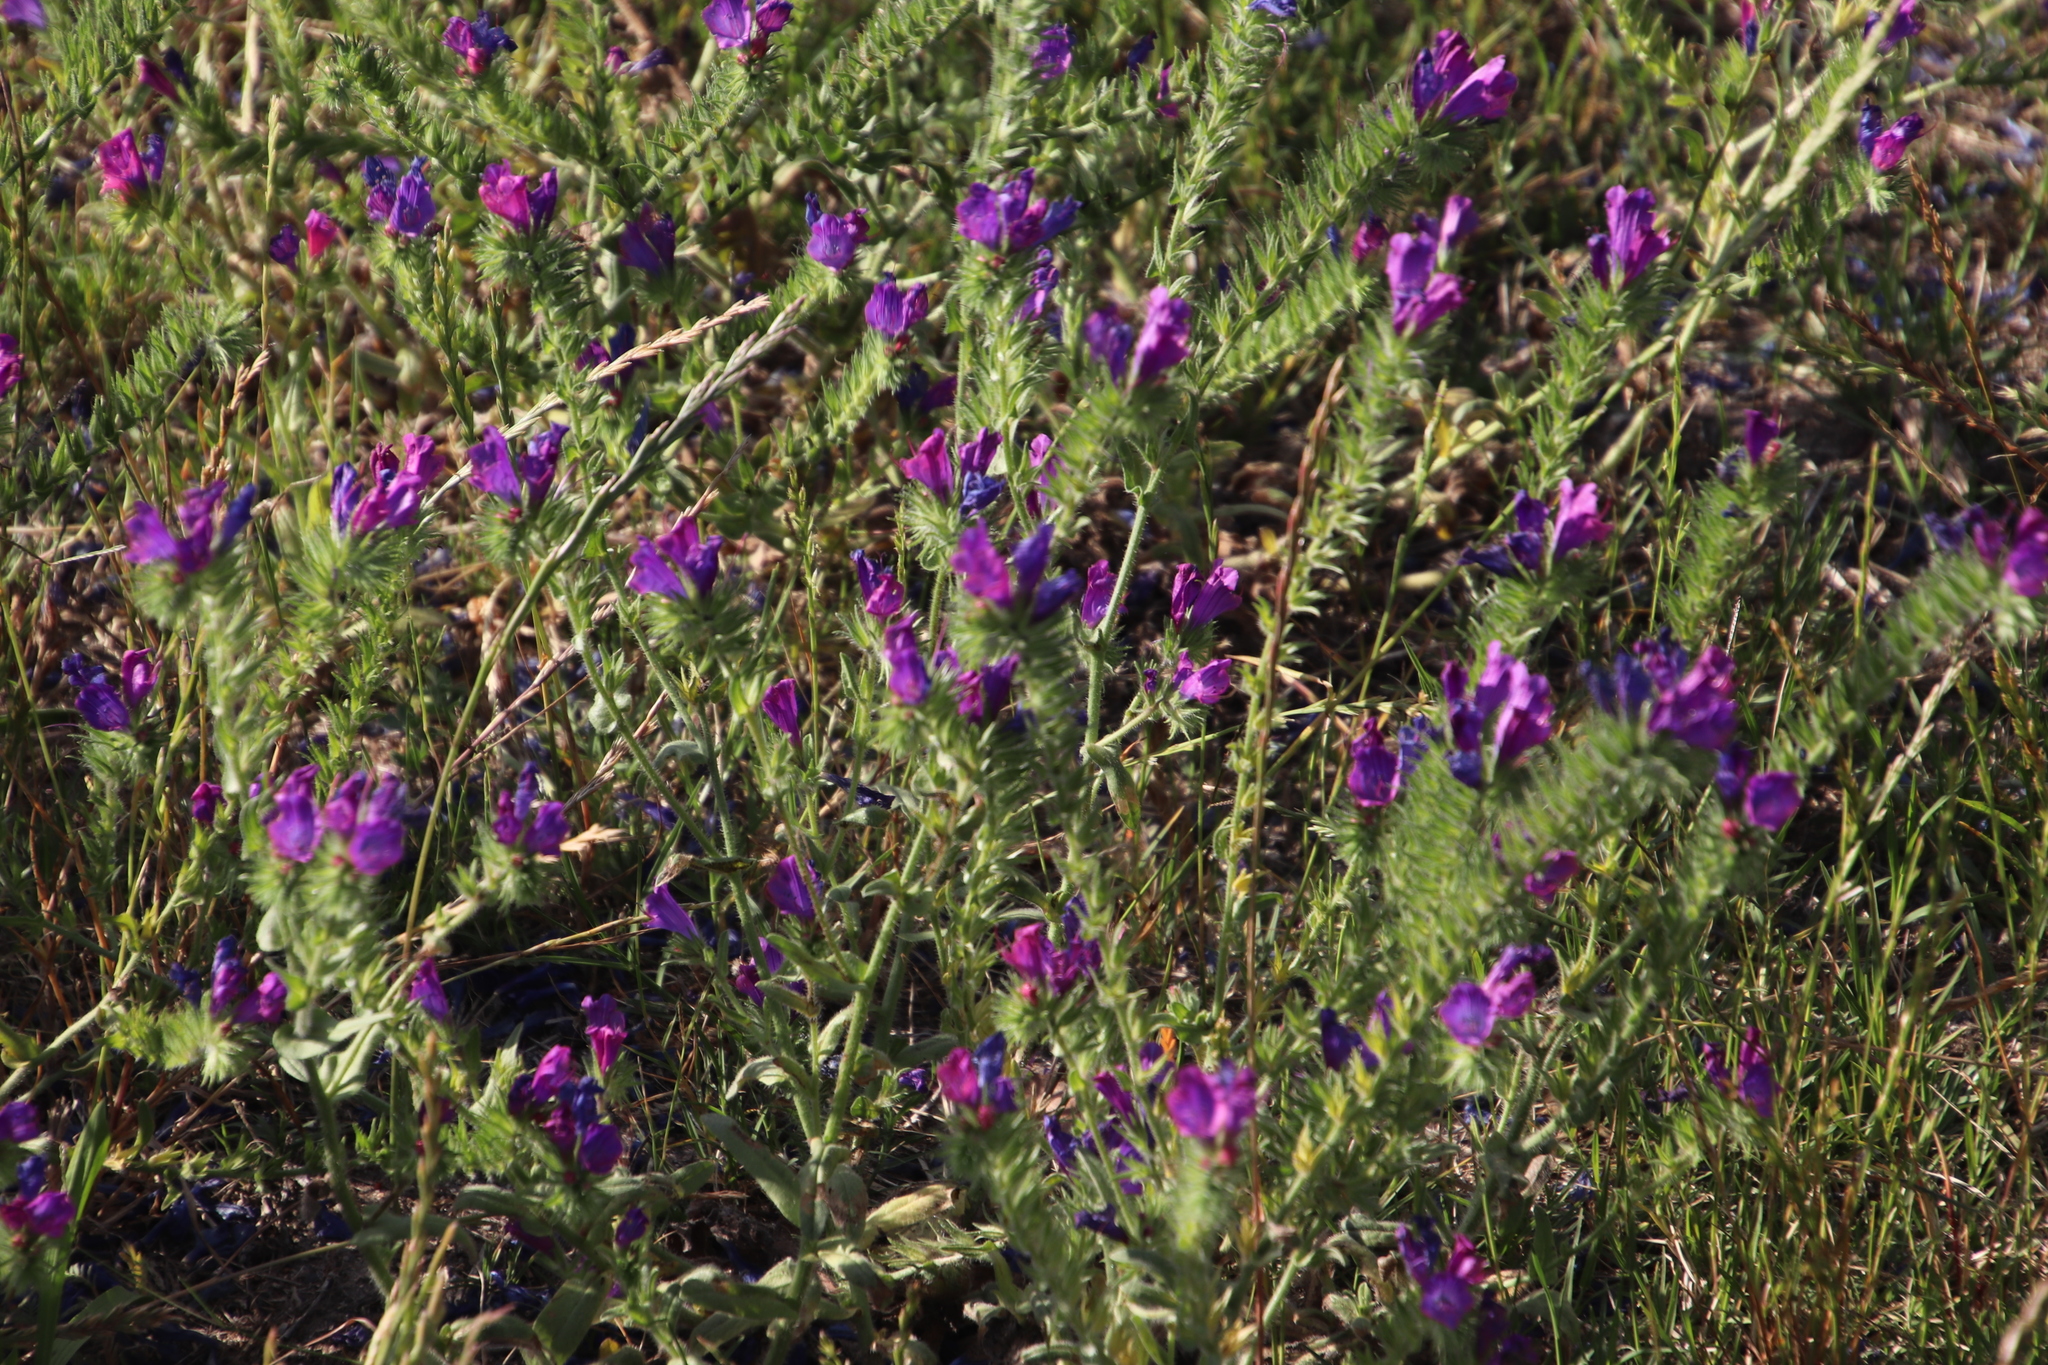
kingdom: Plantae
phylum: Tracheophyta
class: Magnoliopsida
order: Boraginales
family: Boraginaceae
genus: Echium
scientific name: Echium plantagineum
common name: Purple viper's-bugloss
